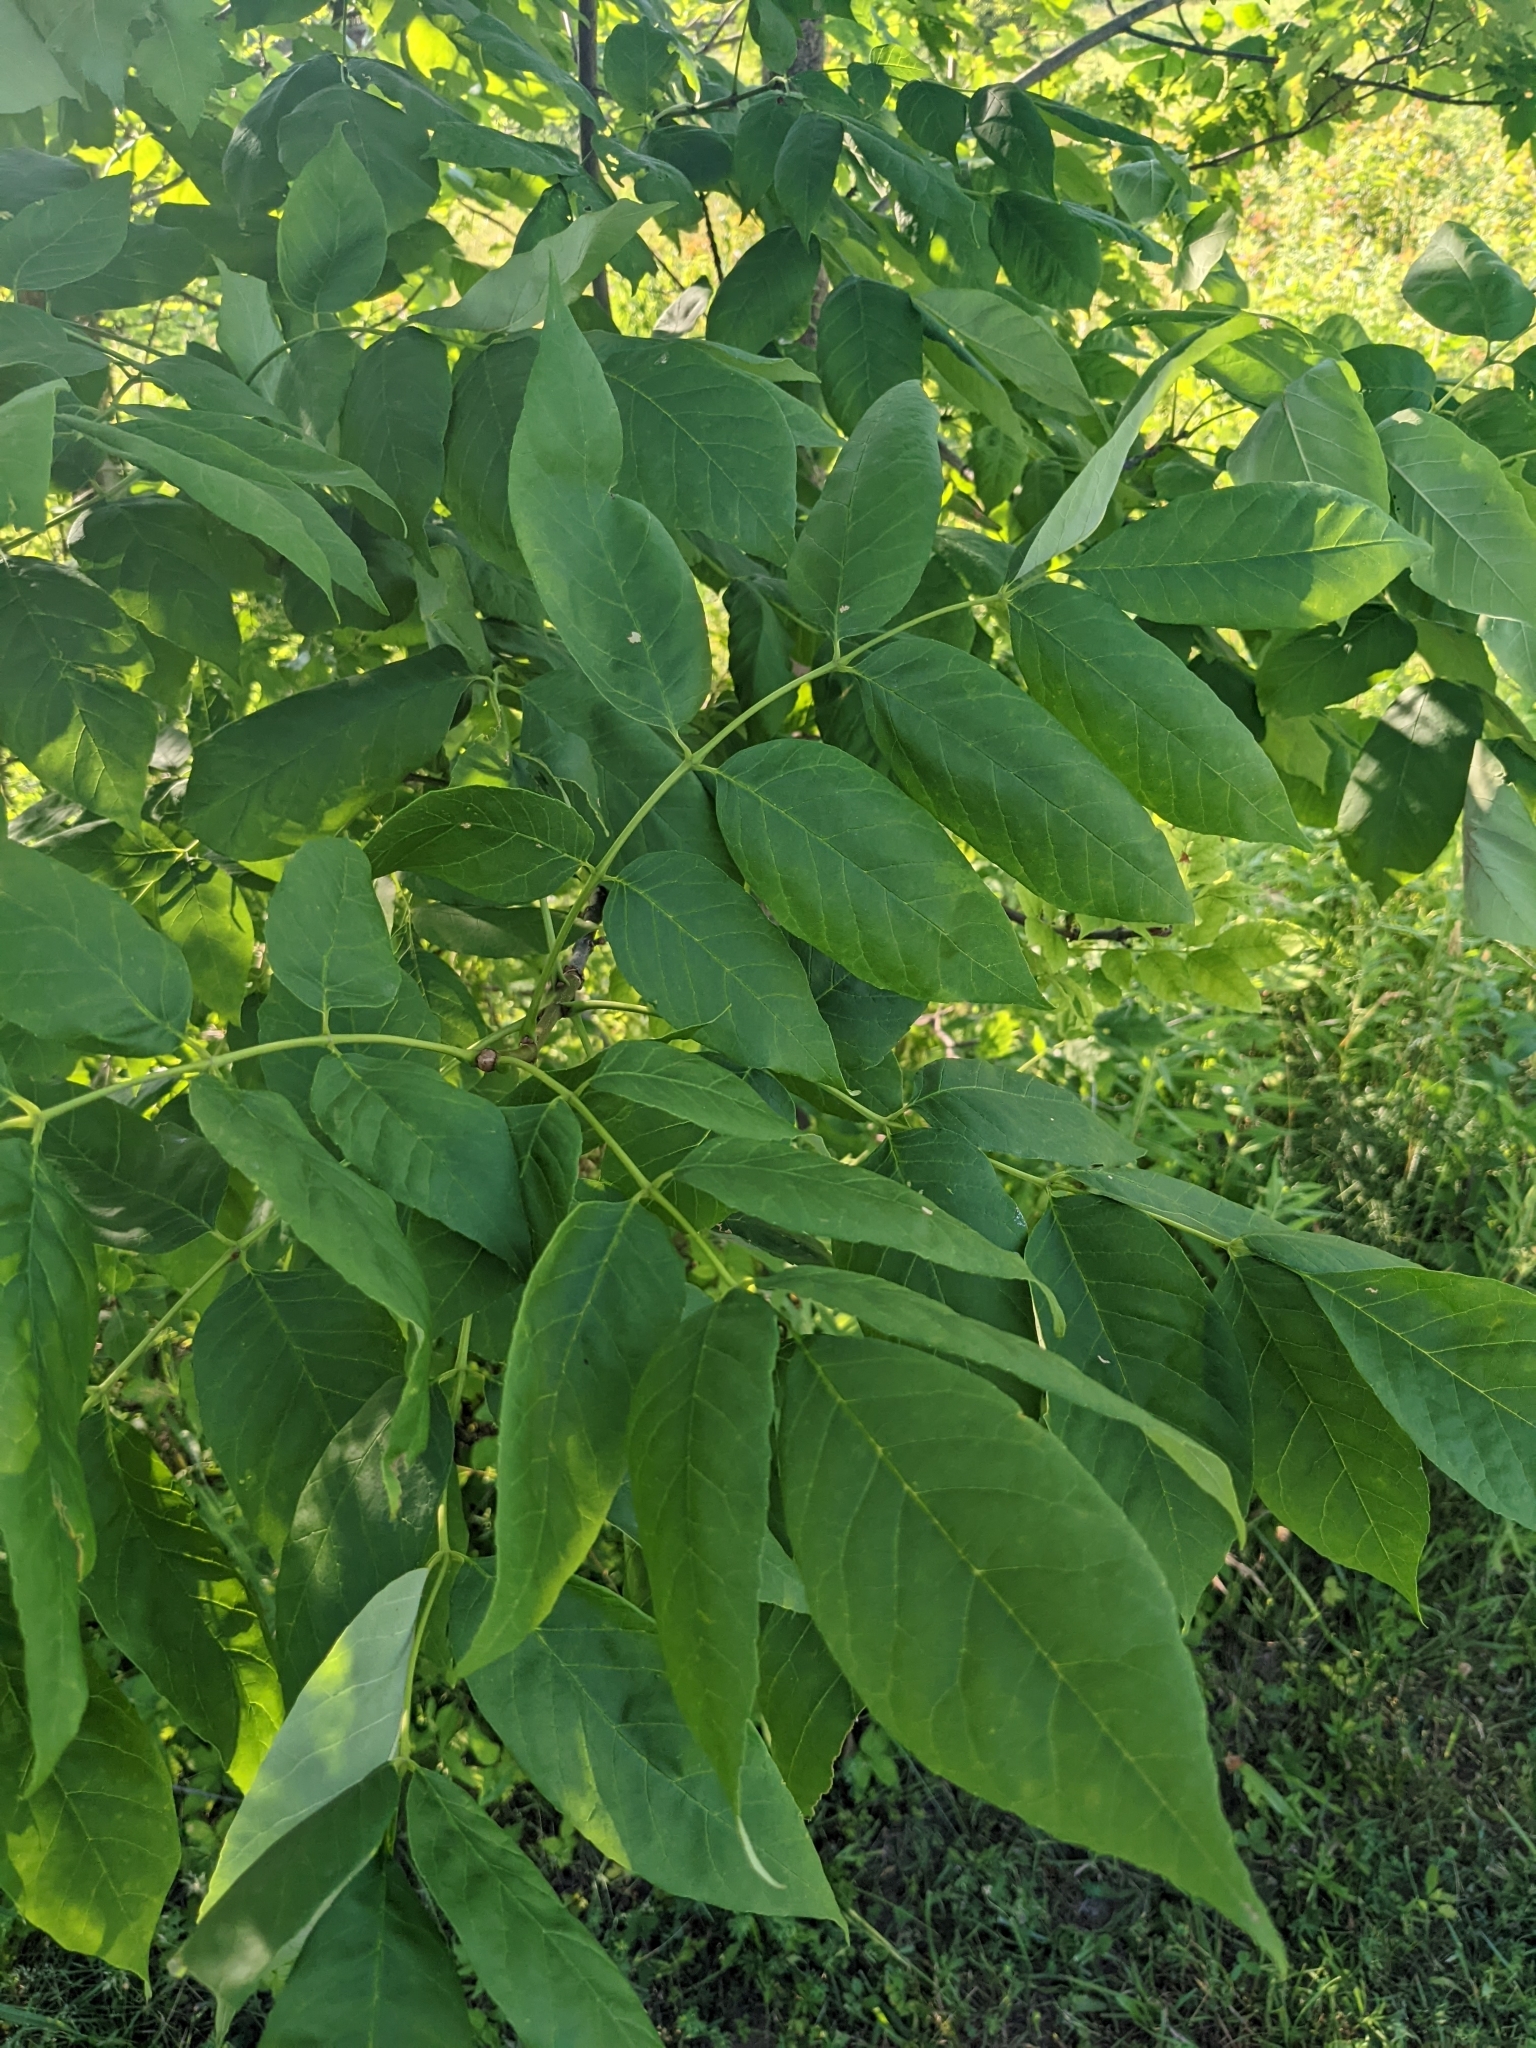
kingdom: Plantae
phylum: Tracheophyta
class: Magnoliopsida
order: Lamiales
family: Oleaceae
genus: Fraxinus
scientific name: Fraxinus pennsylvanica
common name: Green ash
